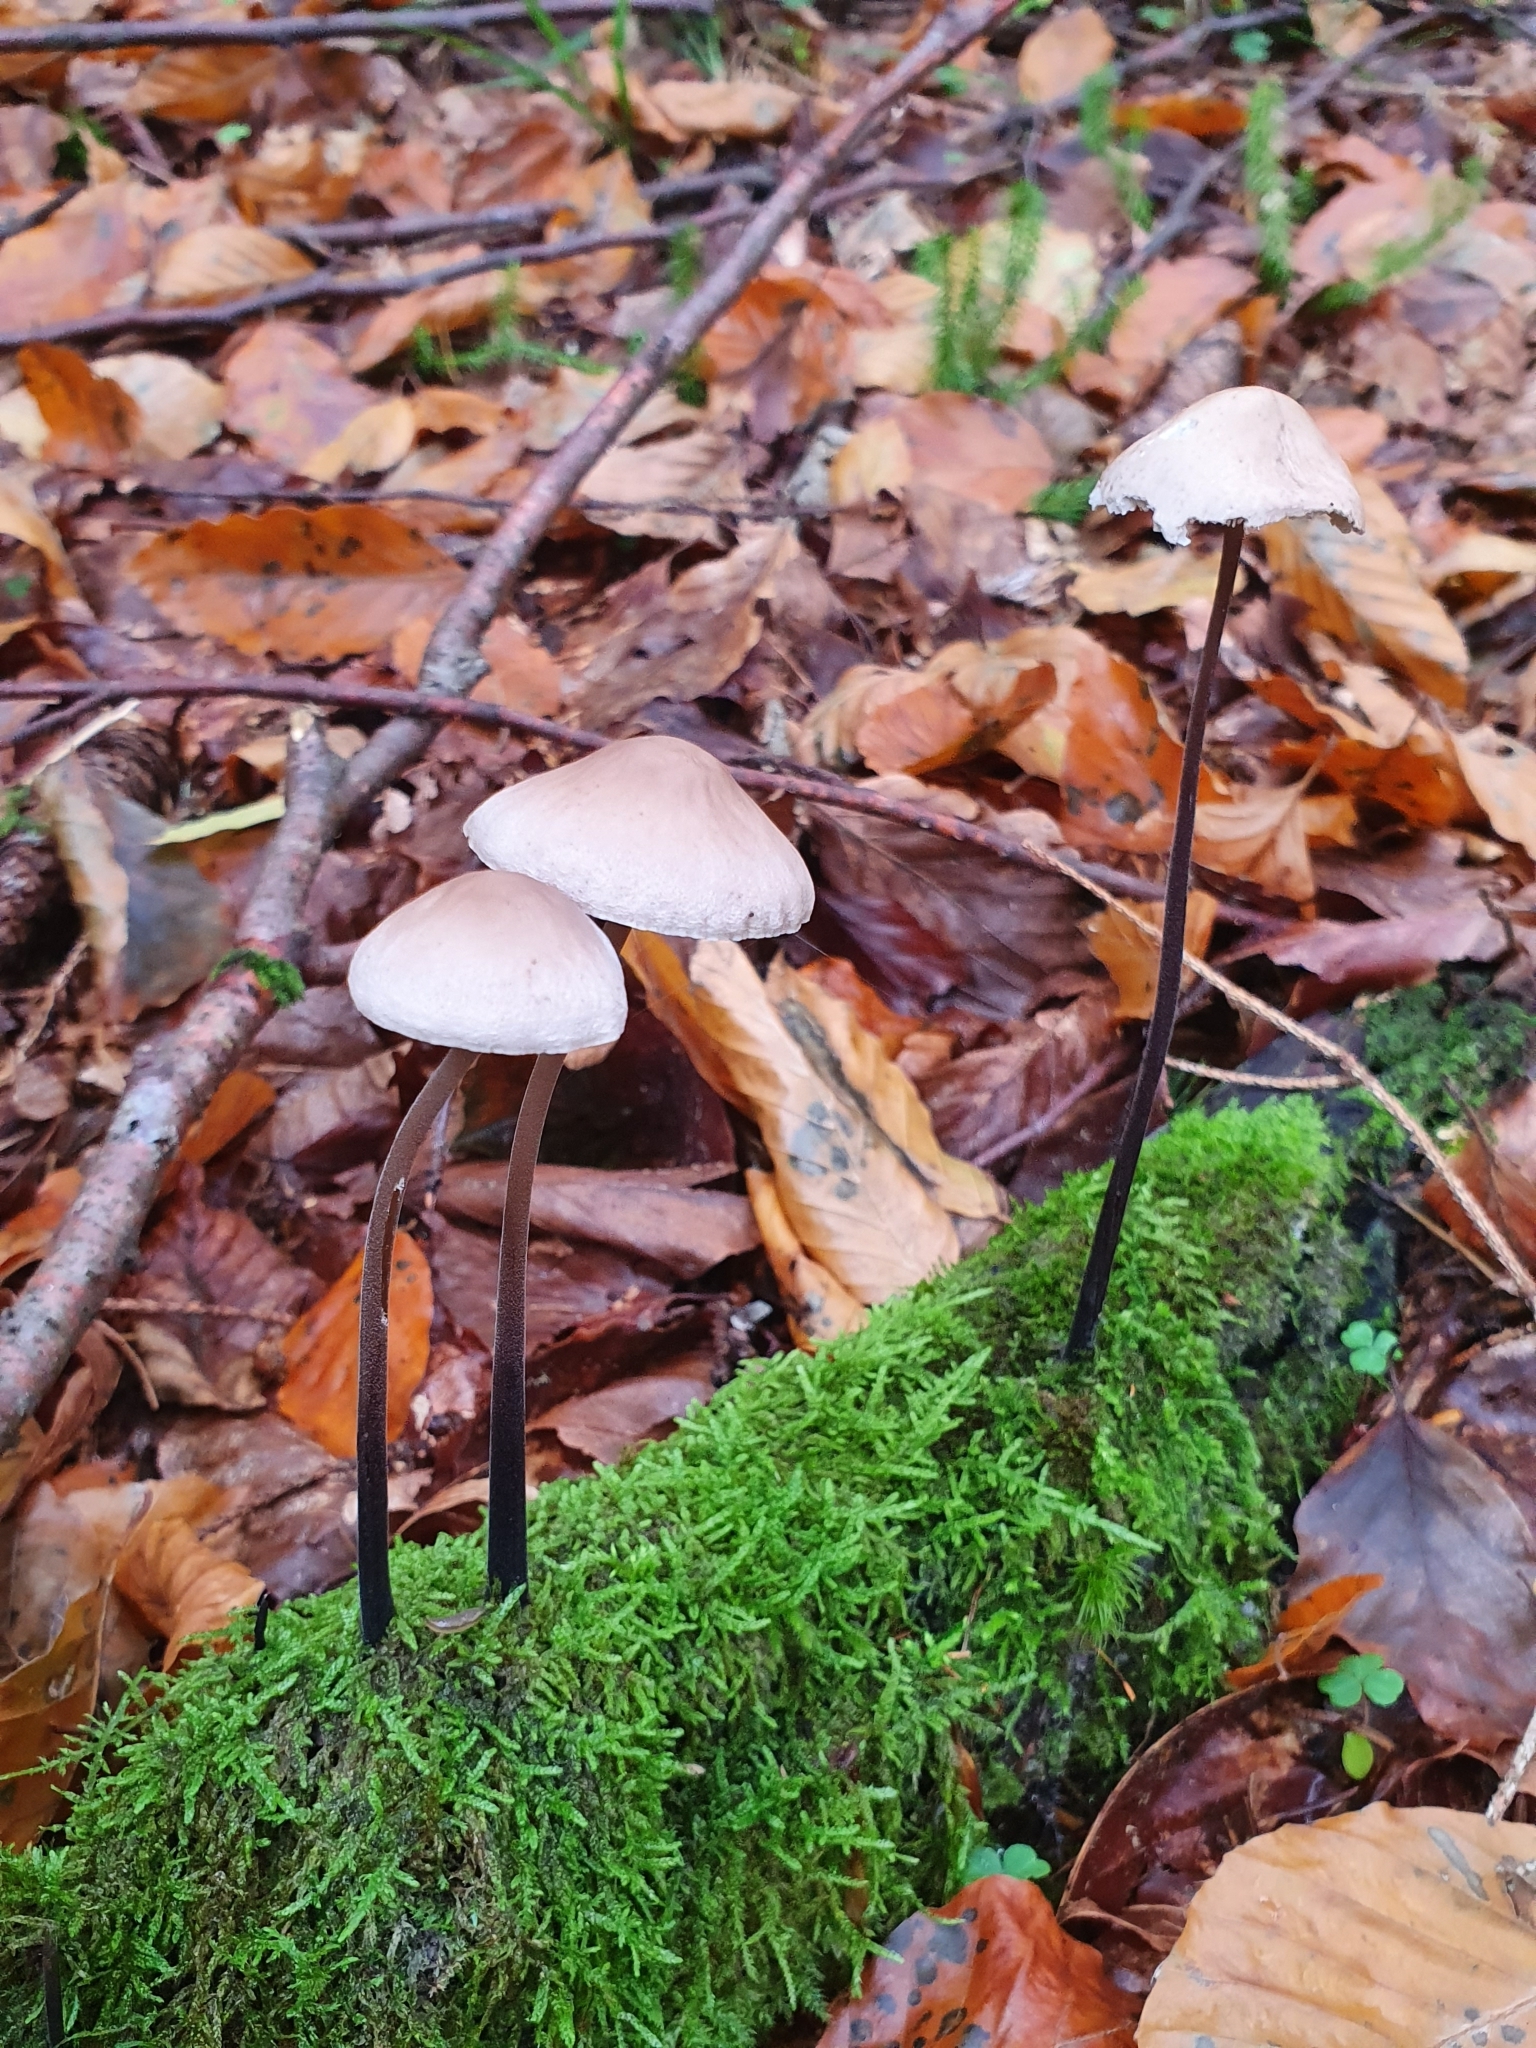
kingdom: Fungi
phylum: Basidiomycota
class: Agaricomycetes
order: Agaricales
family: Omphalotaceae
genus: Mycetinis
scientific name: Mycetinis alliaceus
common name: Garlic parachute
